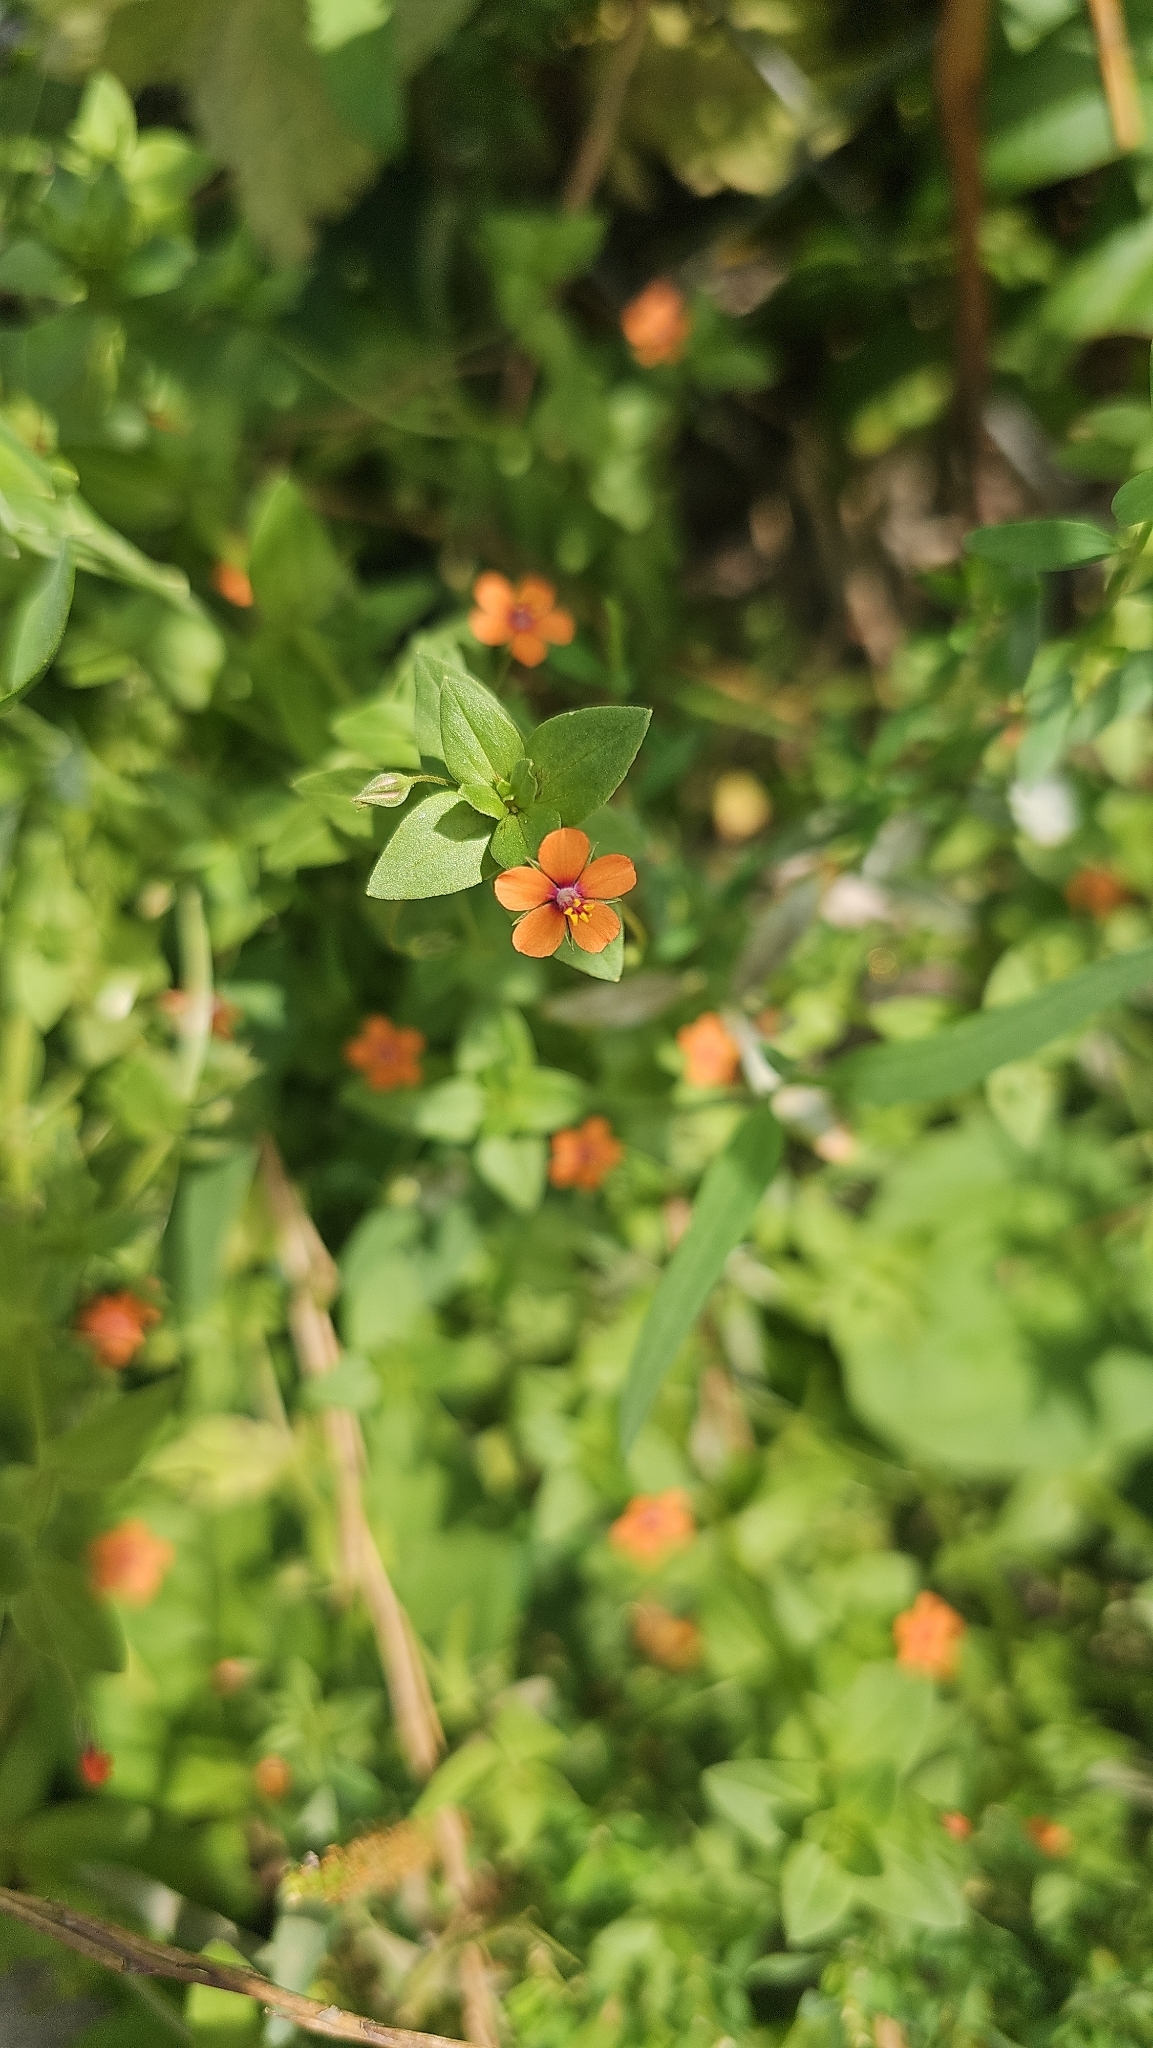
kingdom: Plantae
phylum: Tracheophyta
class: Magnoliopsida
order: Ericales
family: Primulaceae
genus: Lysimachia
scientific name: Lysimachia arvensis
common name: Scarlet pimpernel
